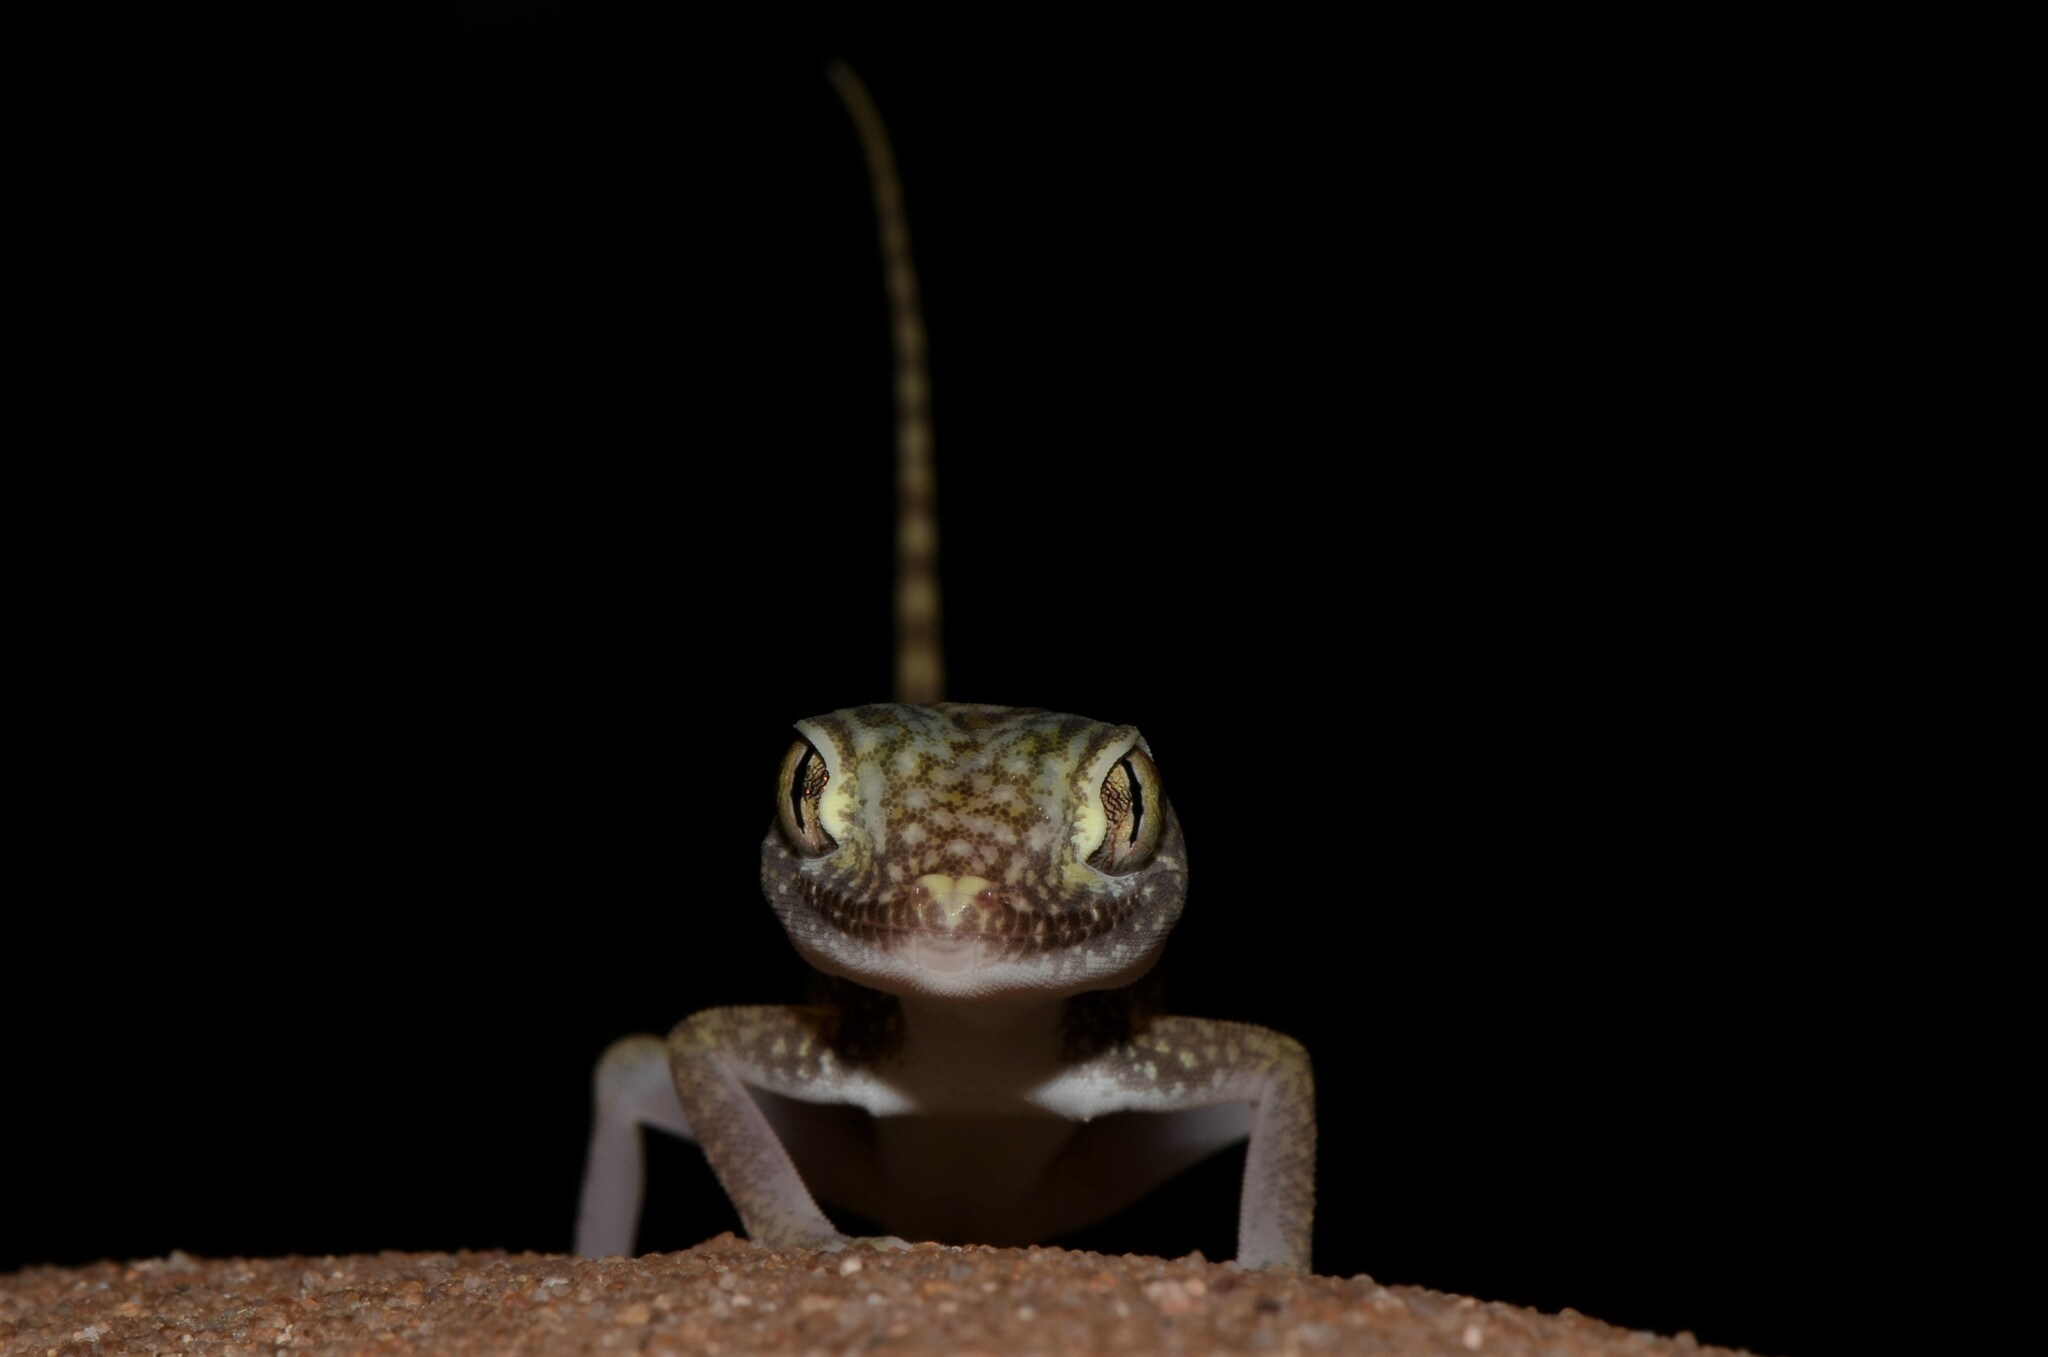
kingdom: Animalia
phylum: Chordata
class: Squamata
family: Gekkonidae
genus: Stenodactylus
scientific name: Stenodactylus doriae
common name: Dune sand gecko
